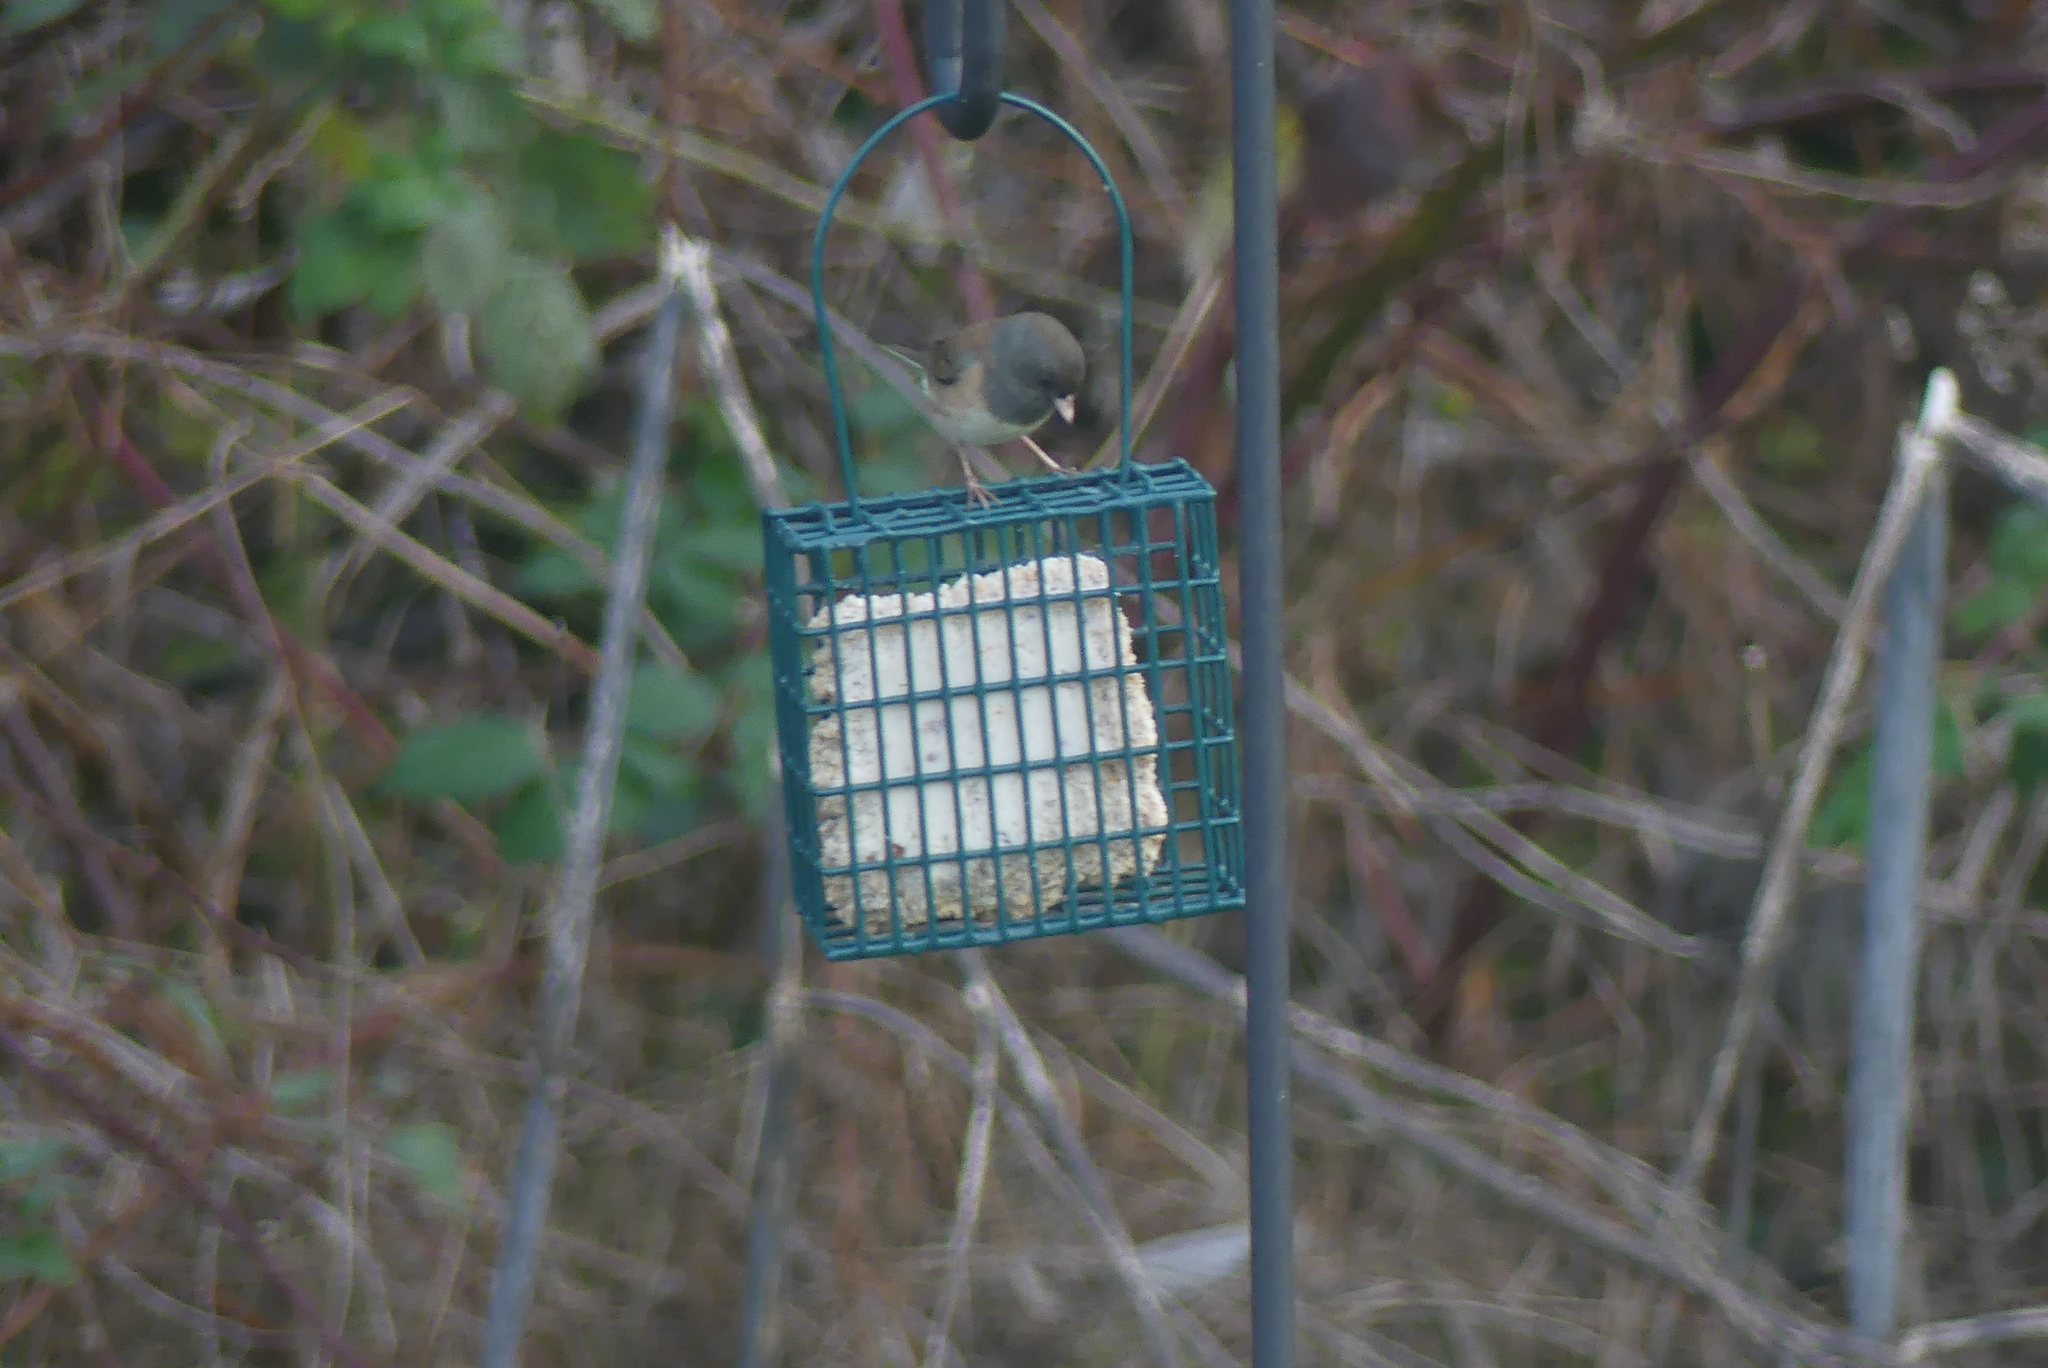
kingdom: Animalia
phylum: Chordata
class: Aves
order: Passeriformes
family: Passerellidae
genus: Junco
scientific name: Junco hyemalis
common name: Dark-eyed junco
